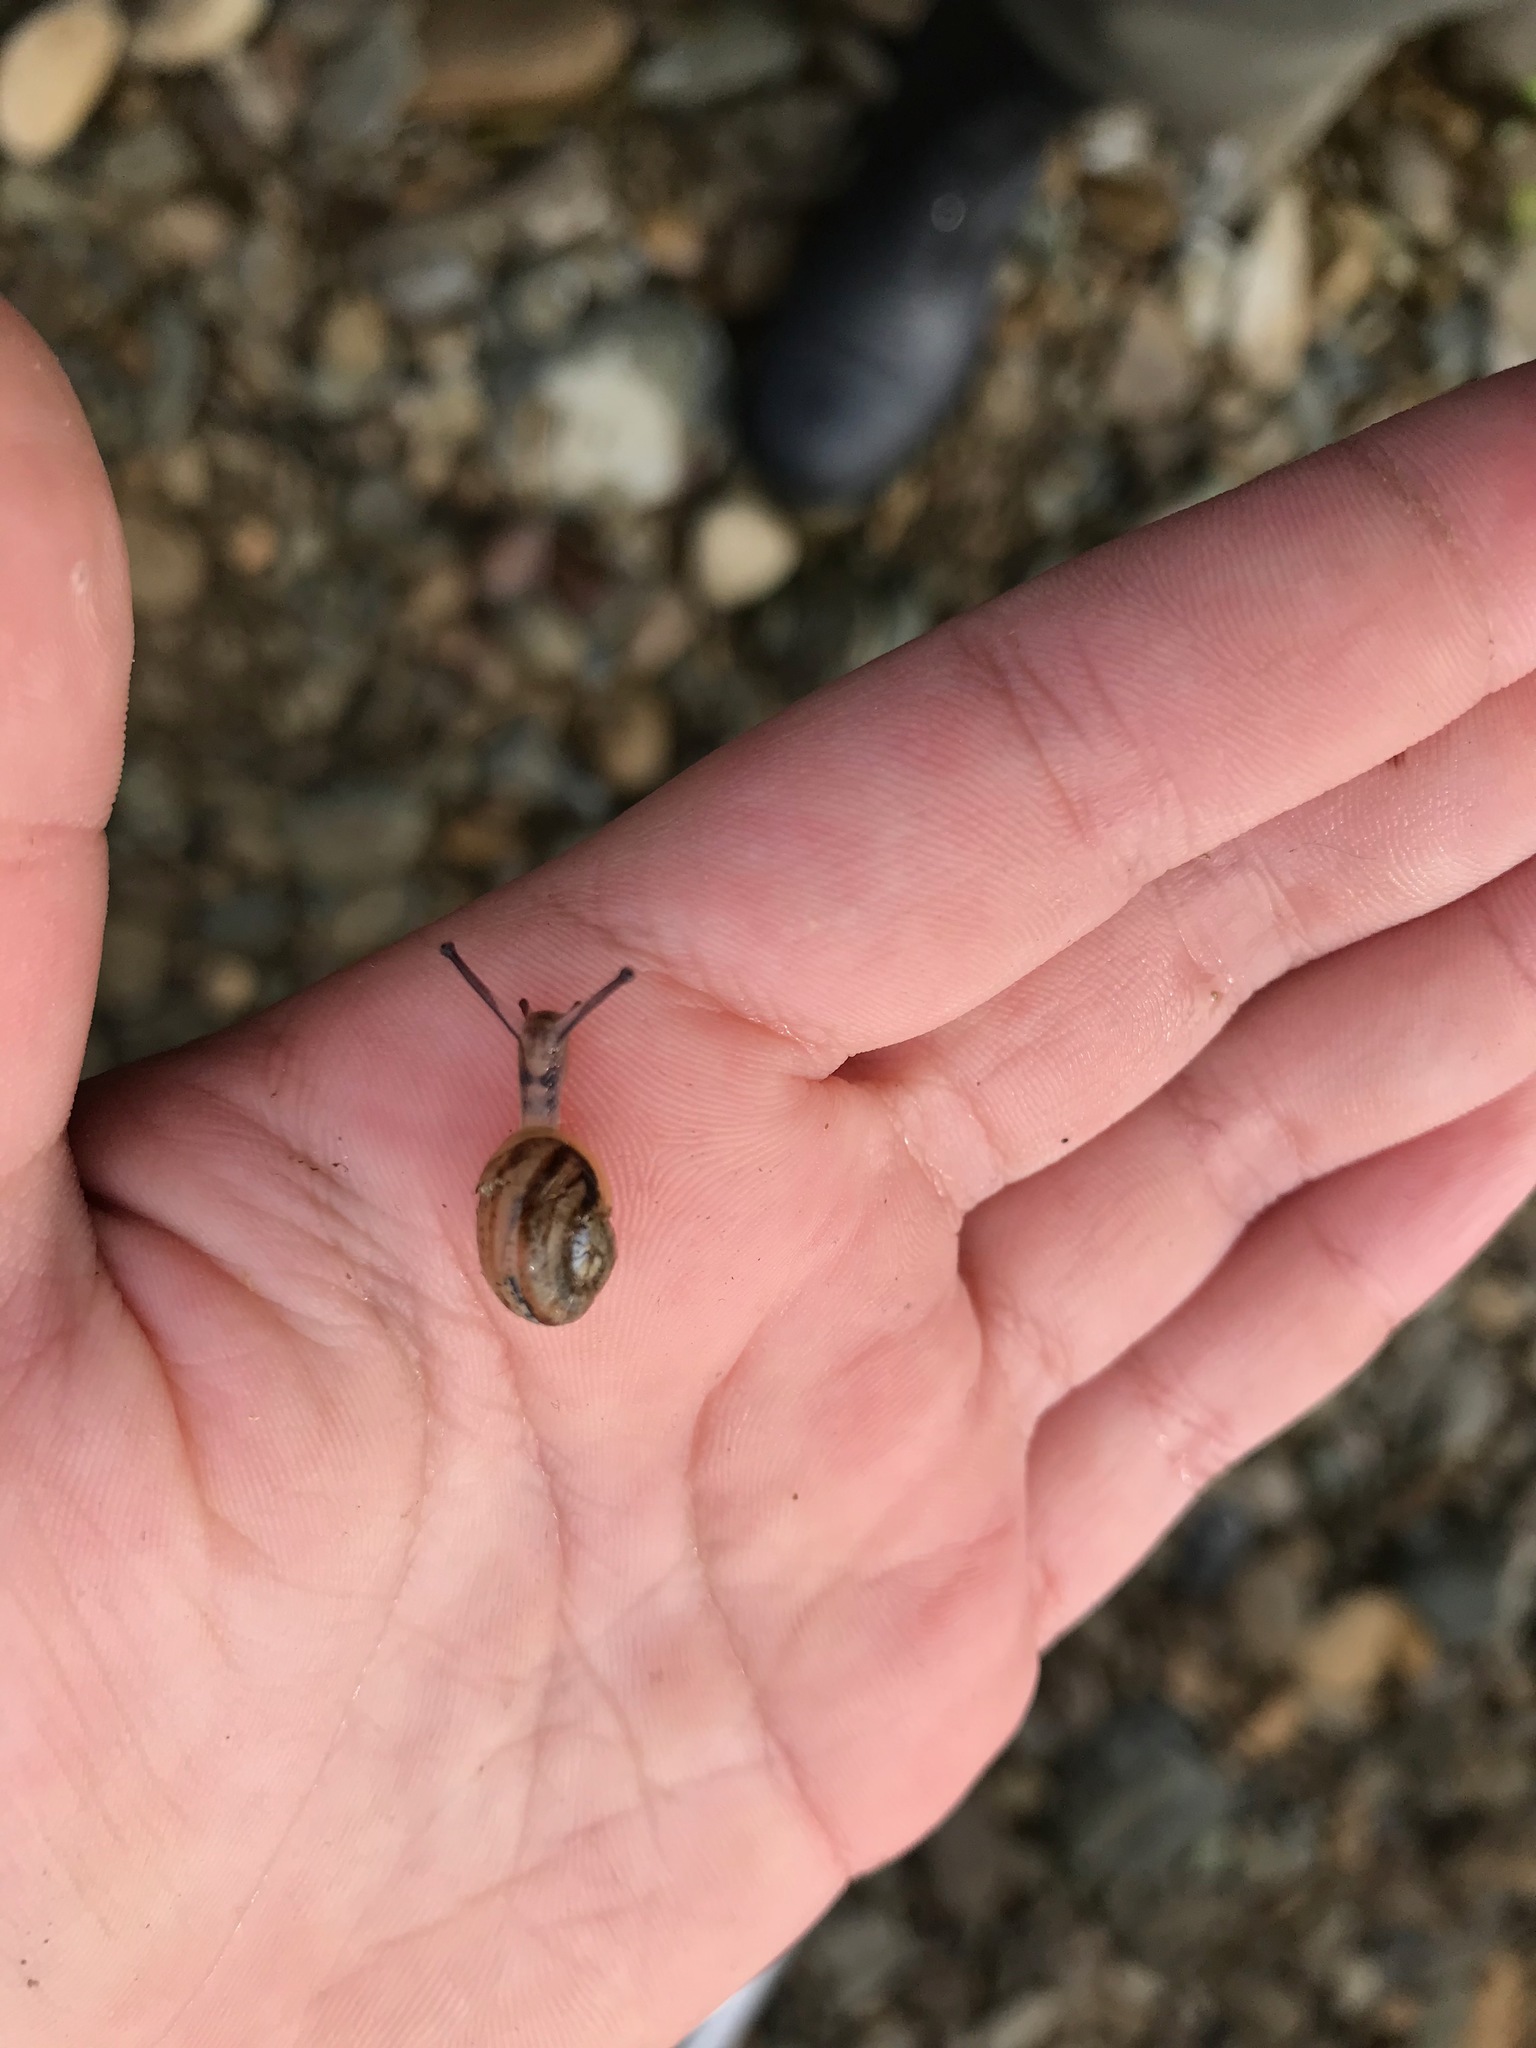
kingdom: Animalia
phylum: Mollusca
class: Gastropoda
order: Stylommatophora
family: Helicidae
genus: Cornu
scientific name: Cornu aspersum
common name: Brown garden snail
